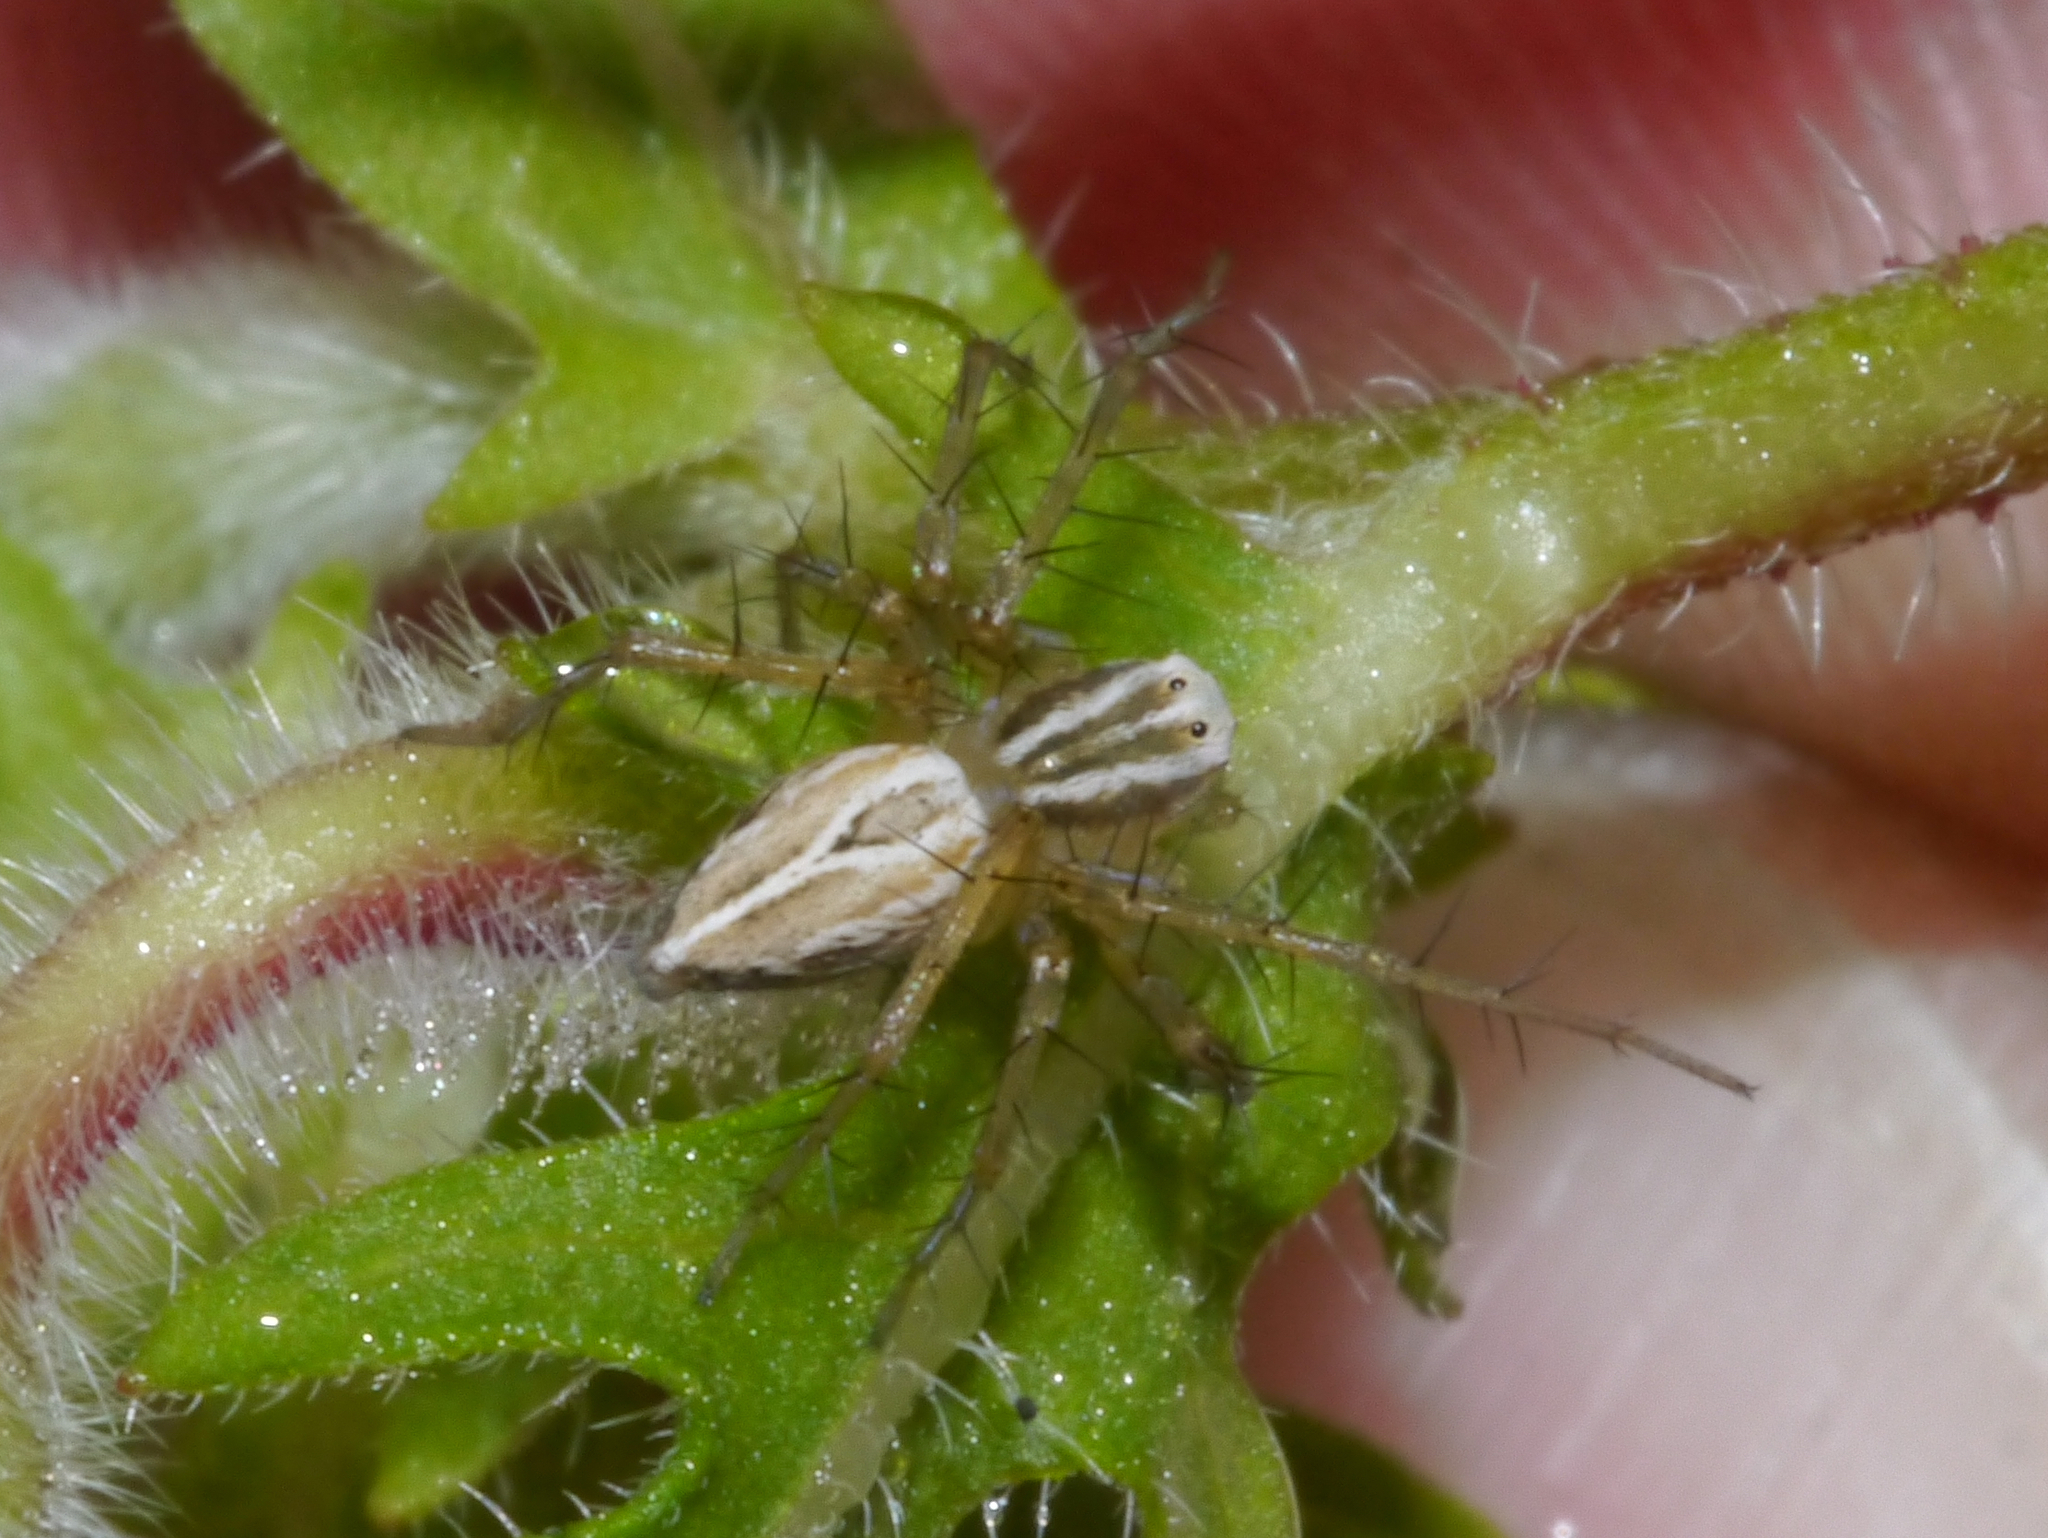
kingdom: Animalia
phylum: Arthropoda
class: Arachnida
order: Araneae
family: Oxyopidae
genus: Oxyopes
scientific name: Oxyopes salticus
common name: Lynx spiders
